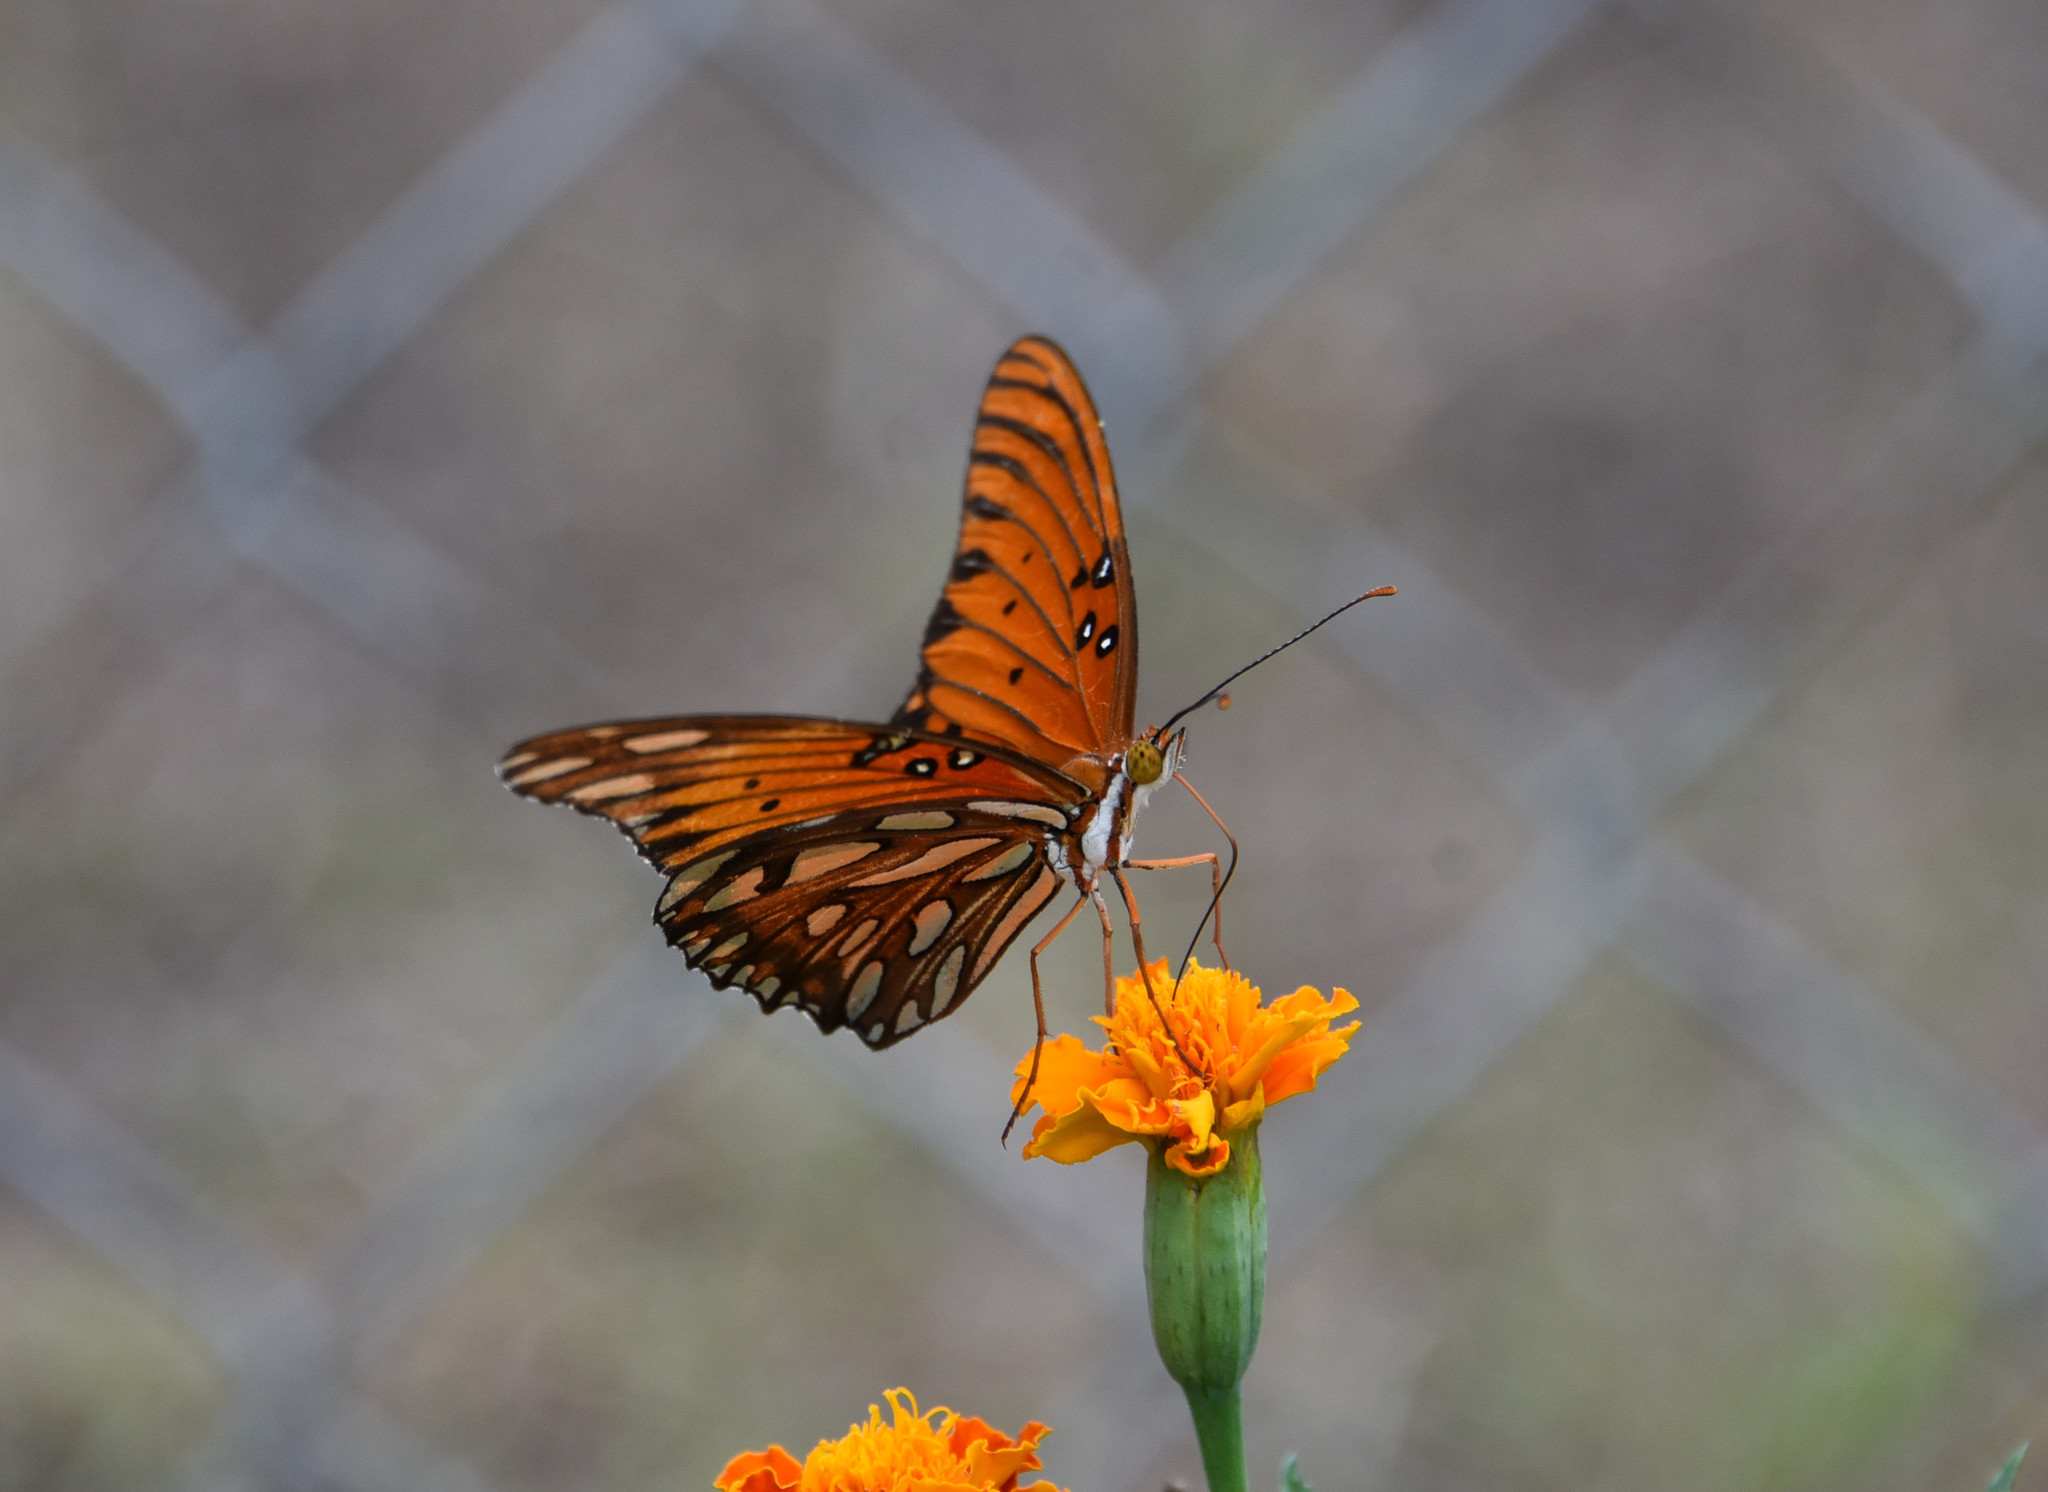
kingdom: Animalia
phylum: Arthropoda
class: Insecta
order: Lepidoptera
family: Nymphalidae
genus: Dione
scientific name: Dione vanillae
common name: Gulf fritillary
